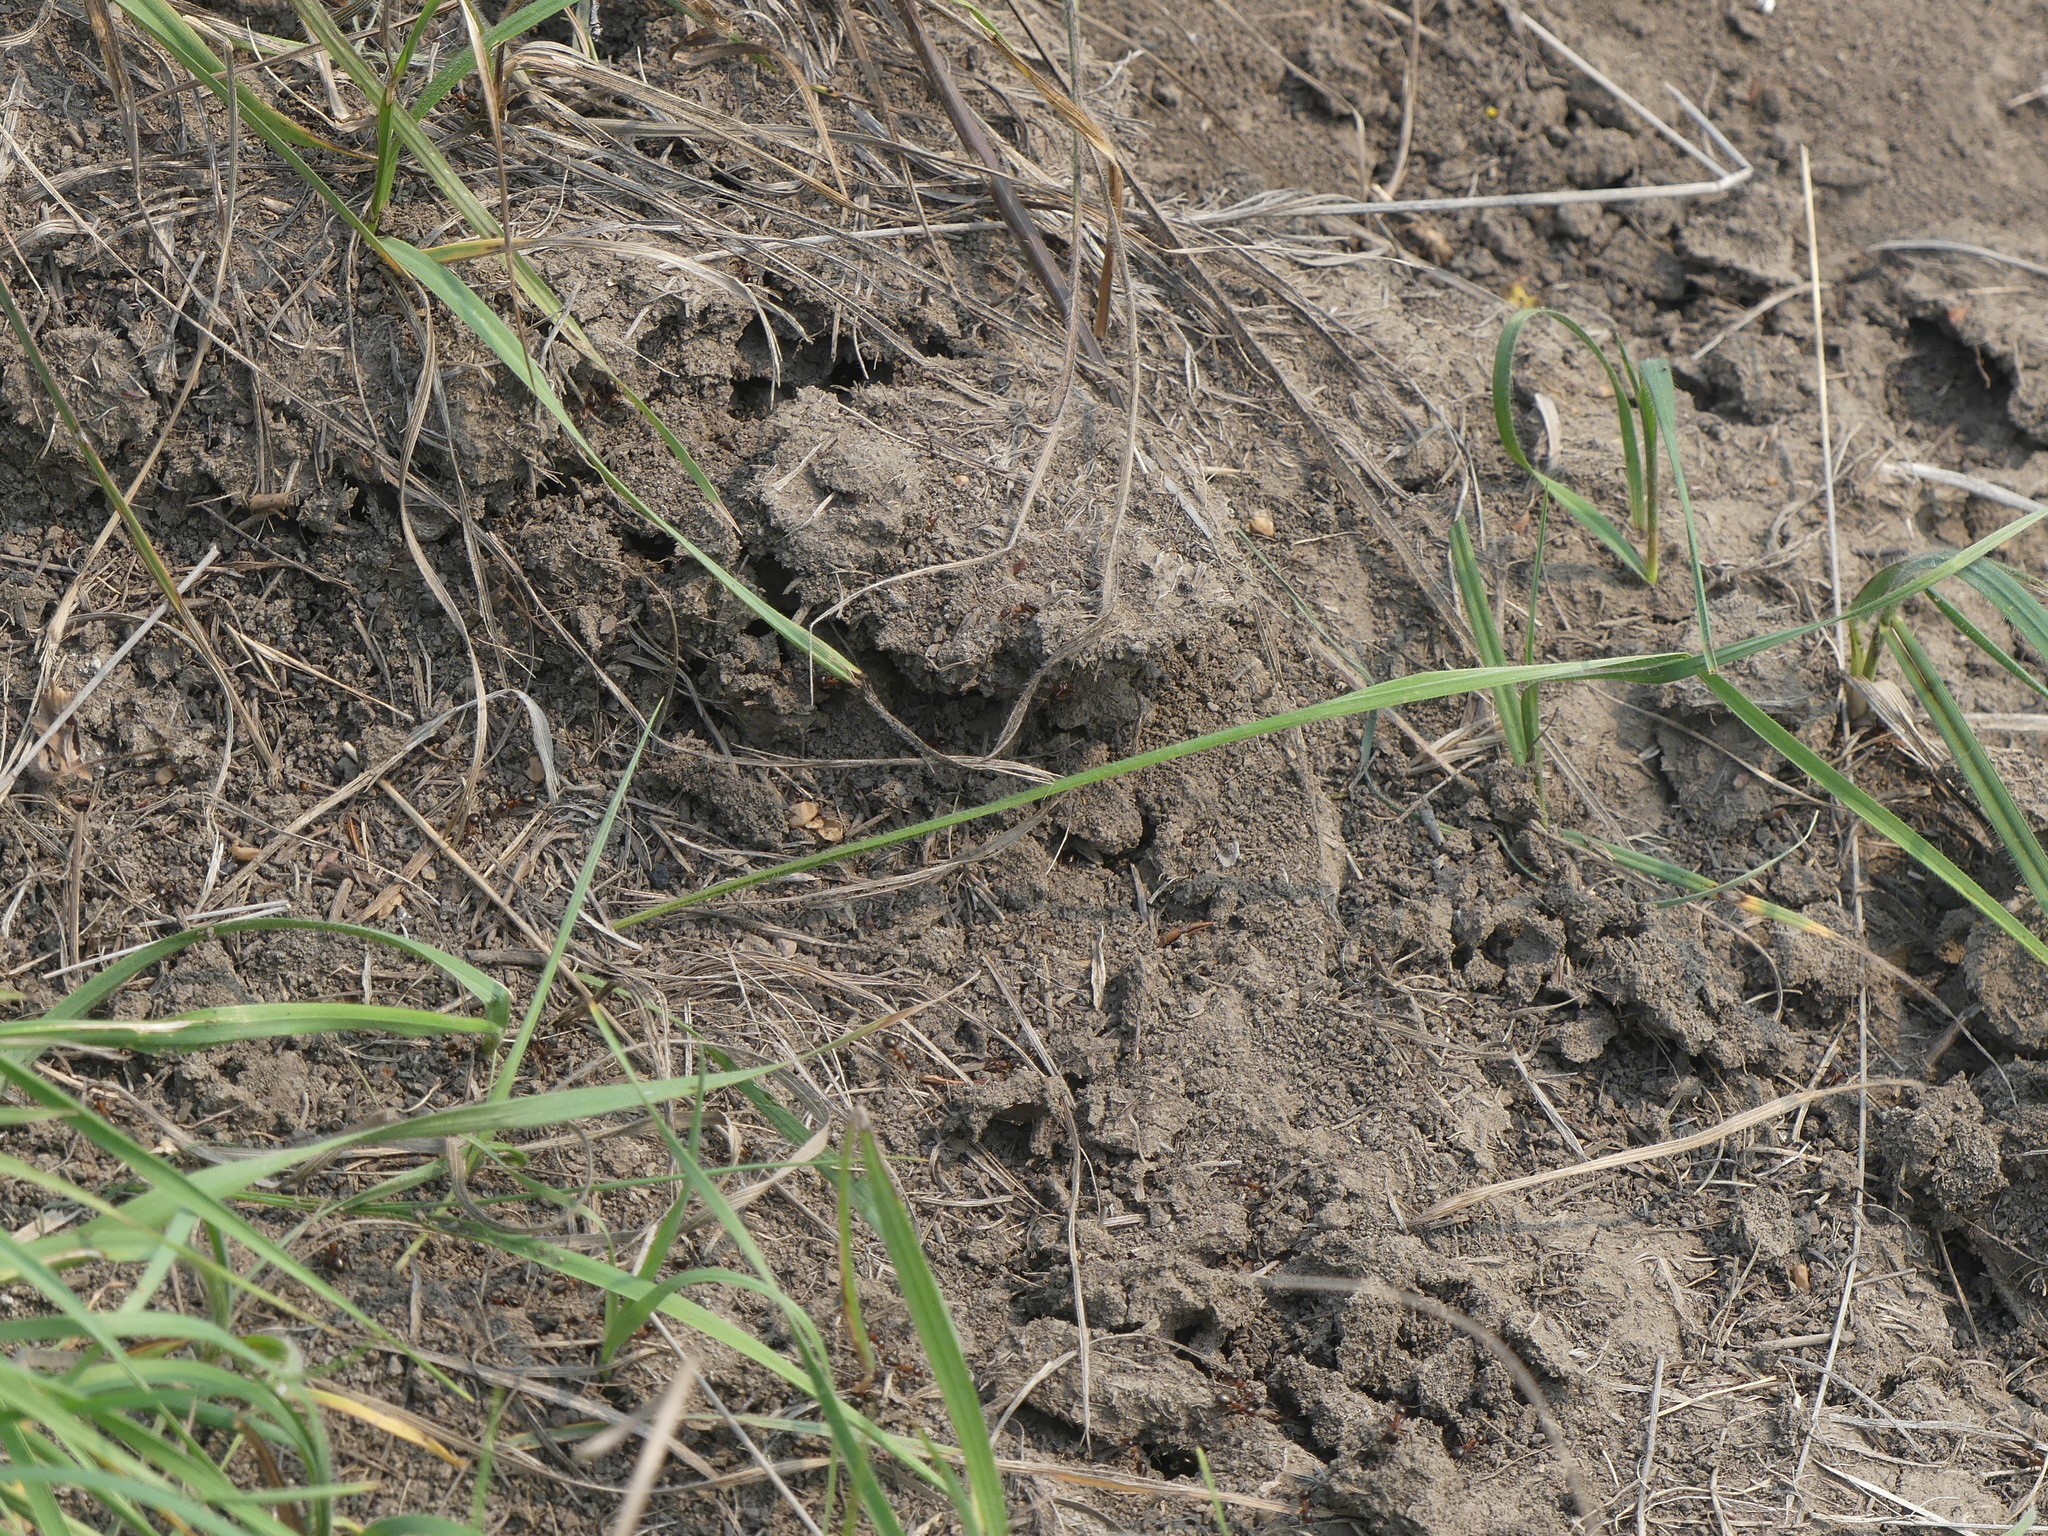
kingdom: Animalia
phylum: Arthropoda
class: Insecta
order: Hymenoptera
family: Formicidae
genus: Formica
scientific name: Formica ulkei
